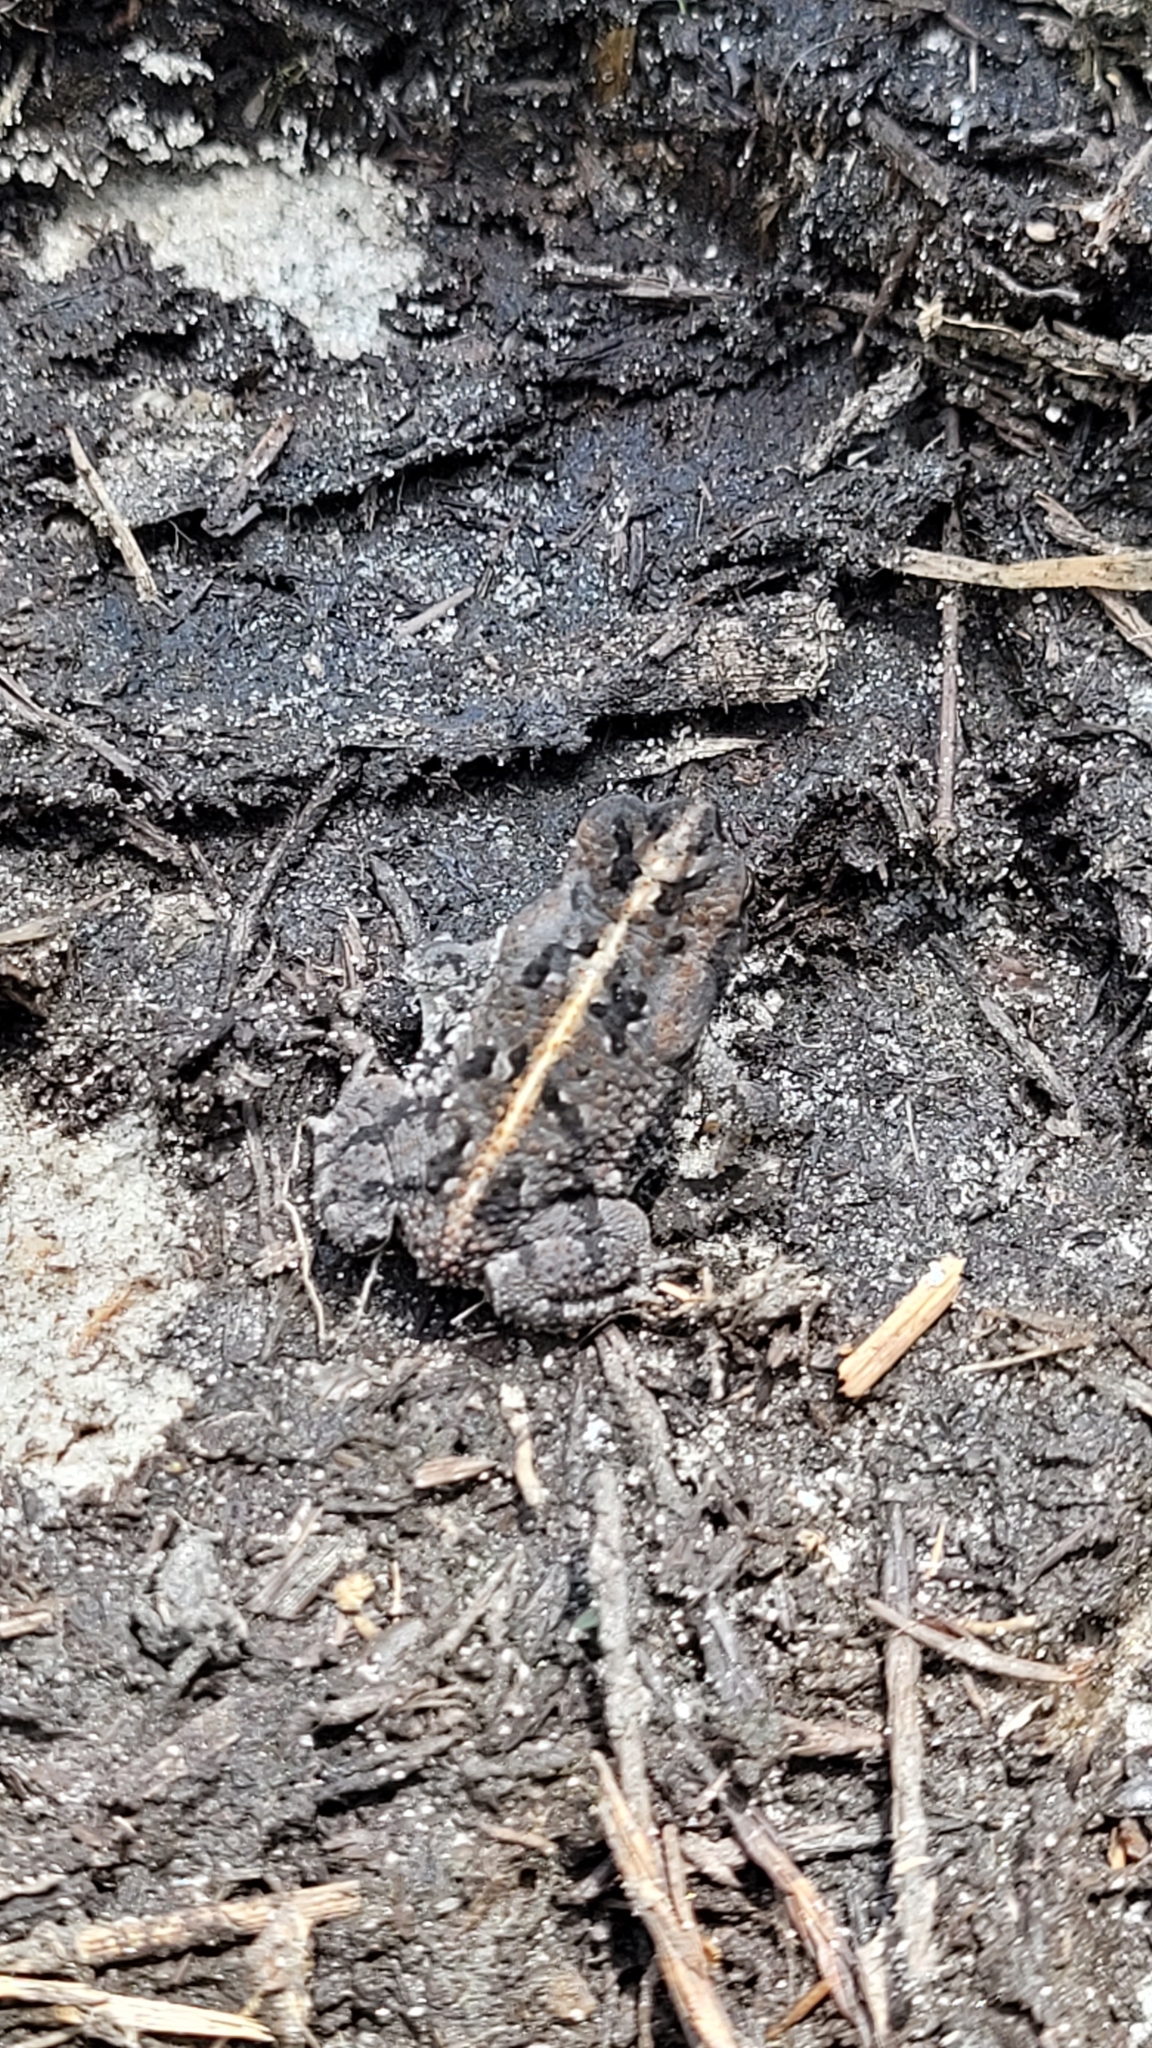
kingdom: Animalia
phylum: Chordata
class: Amphibia
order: Anura
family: Bufonidae
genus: Anaxyrus
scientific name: Anaxyrus quercicus
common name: Oak toad
